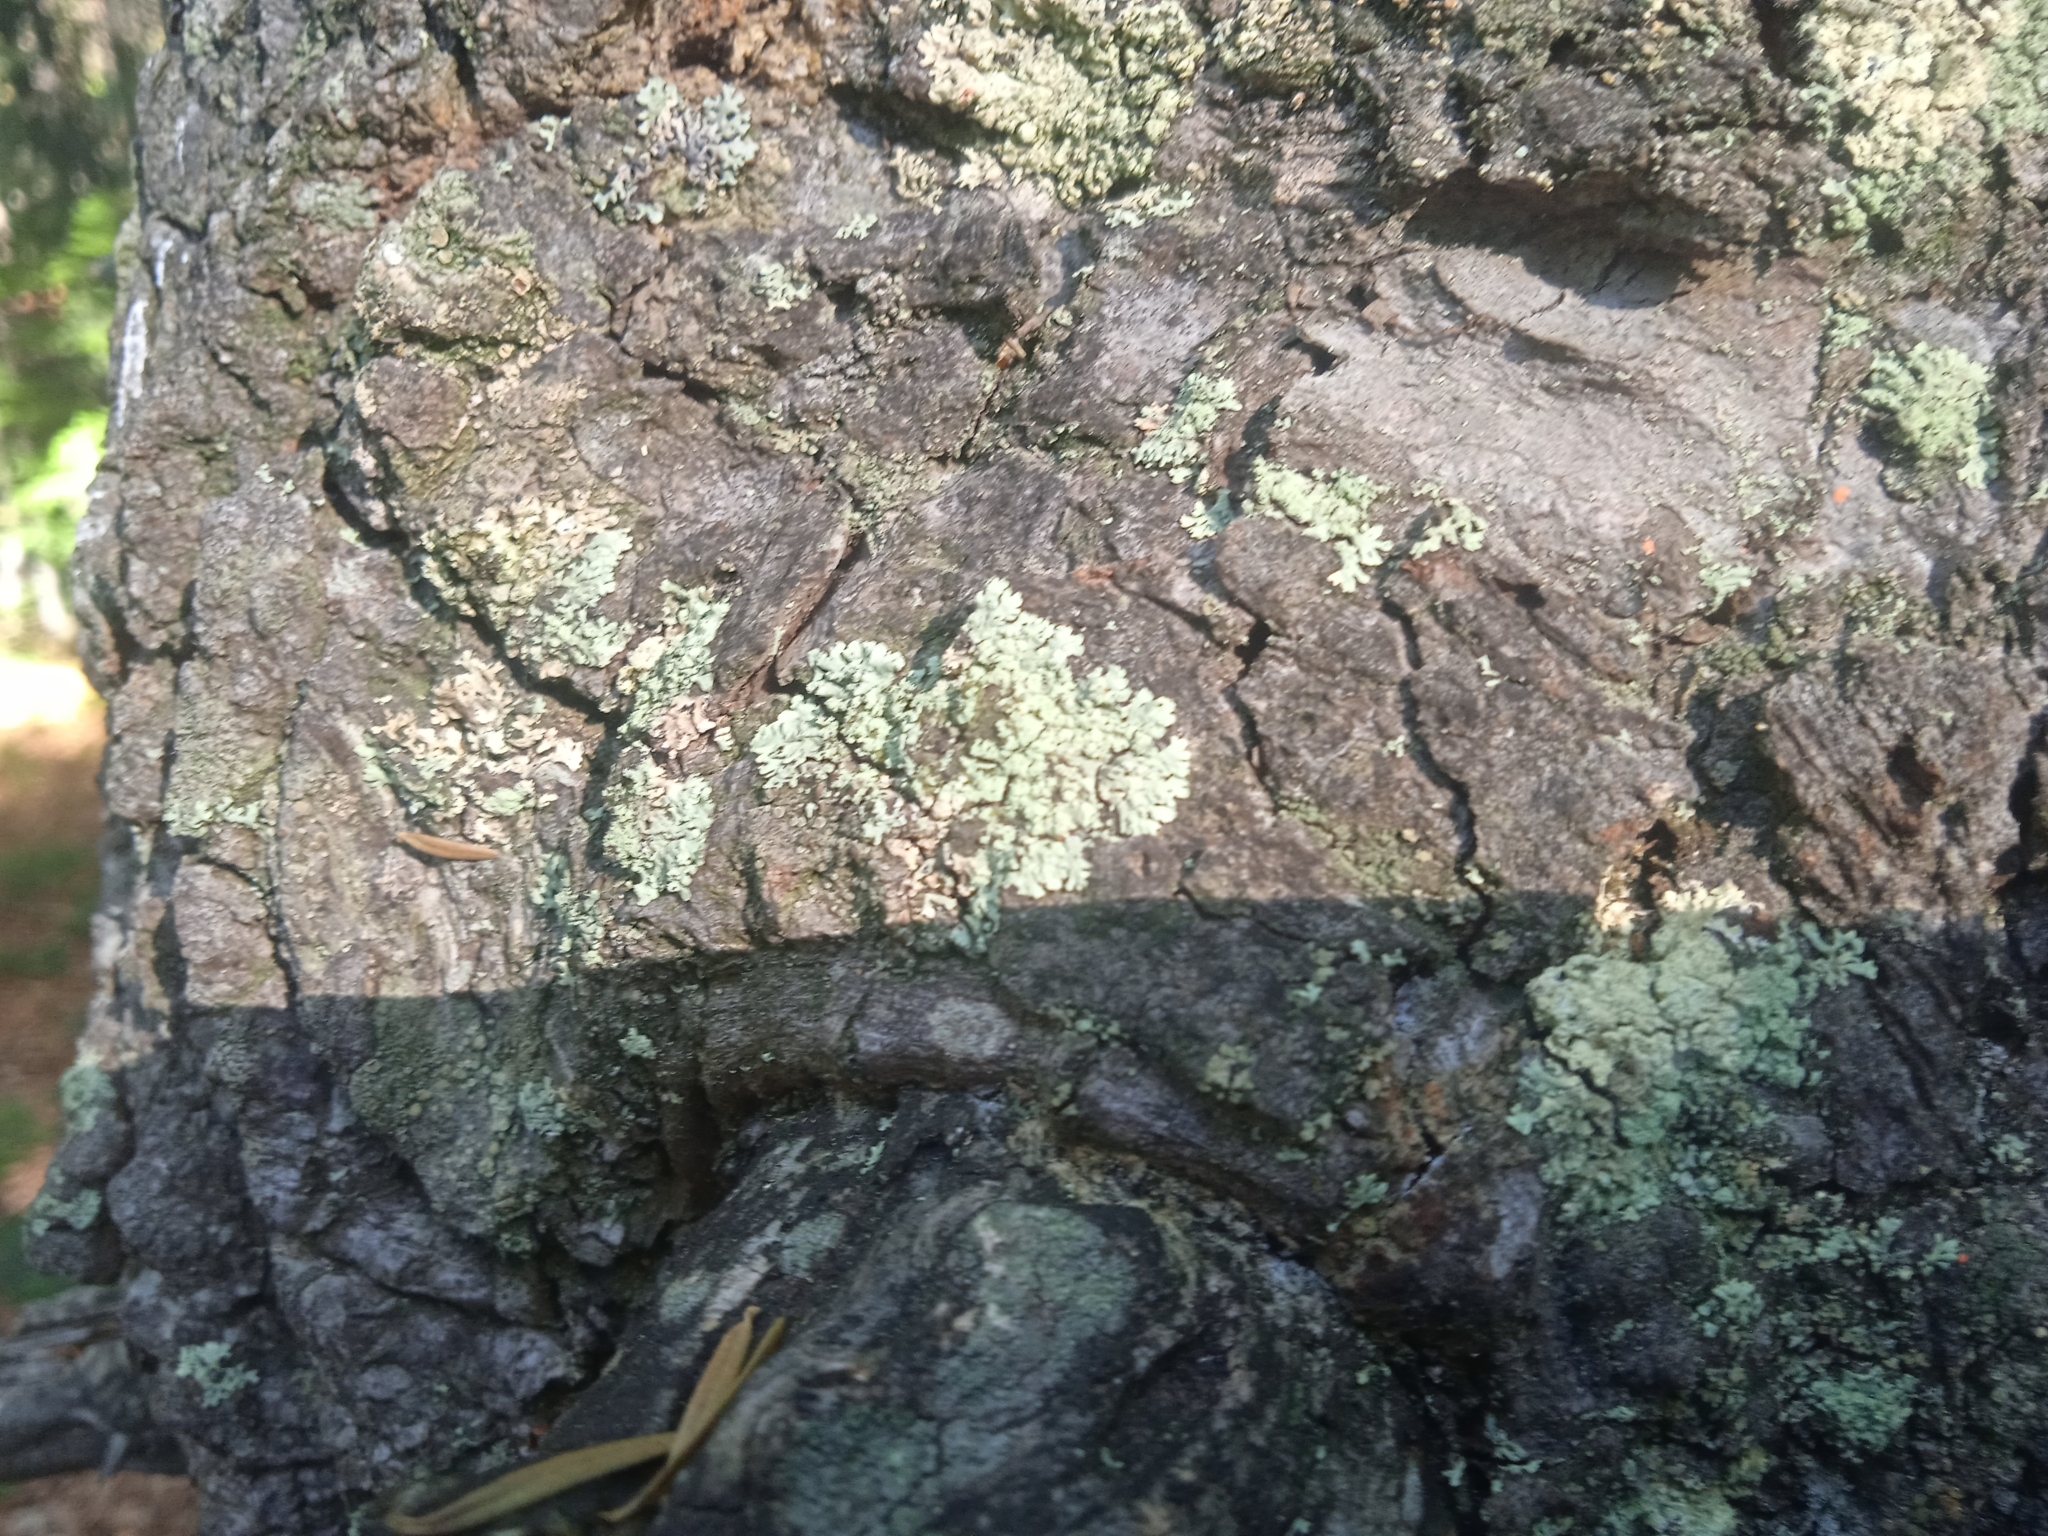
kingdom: Fungi
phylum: Ascomycota
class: Lecanoromycetes
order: Lecanorales
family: Parmeliaceae
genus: Parmeliopsis
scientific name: Parmeliopsis ambigua
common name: Green starburst lichen
